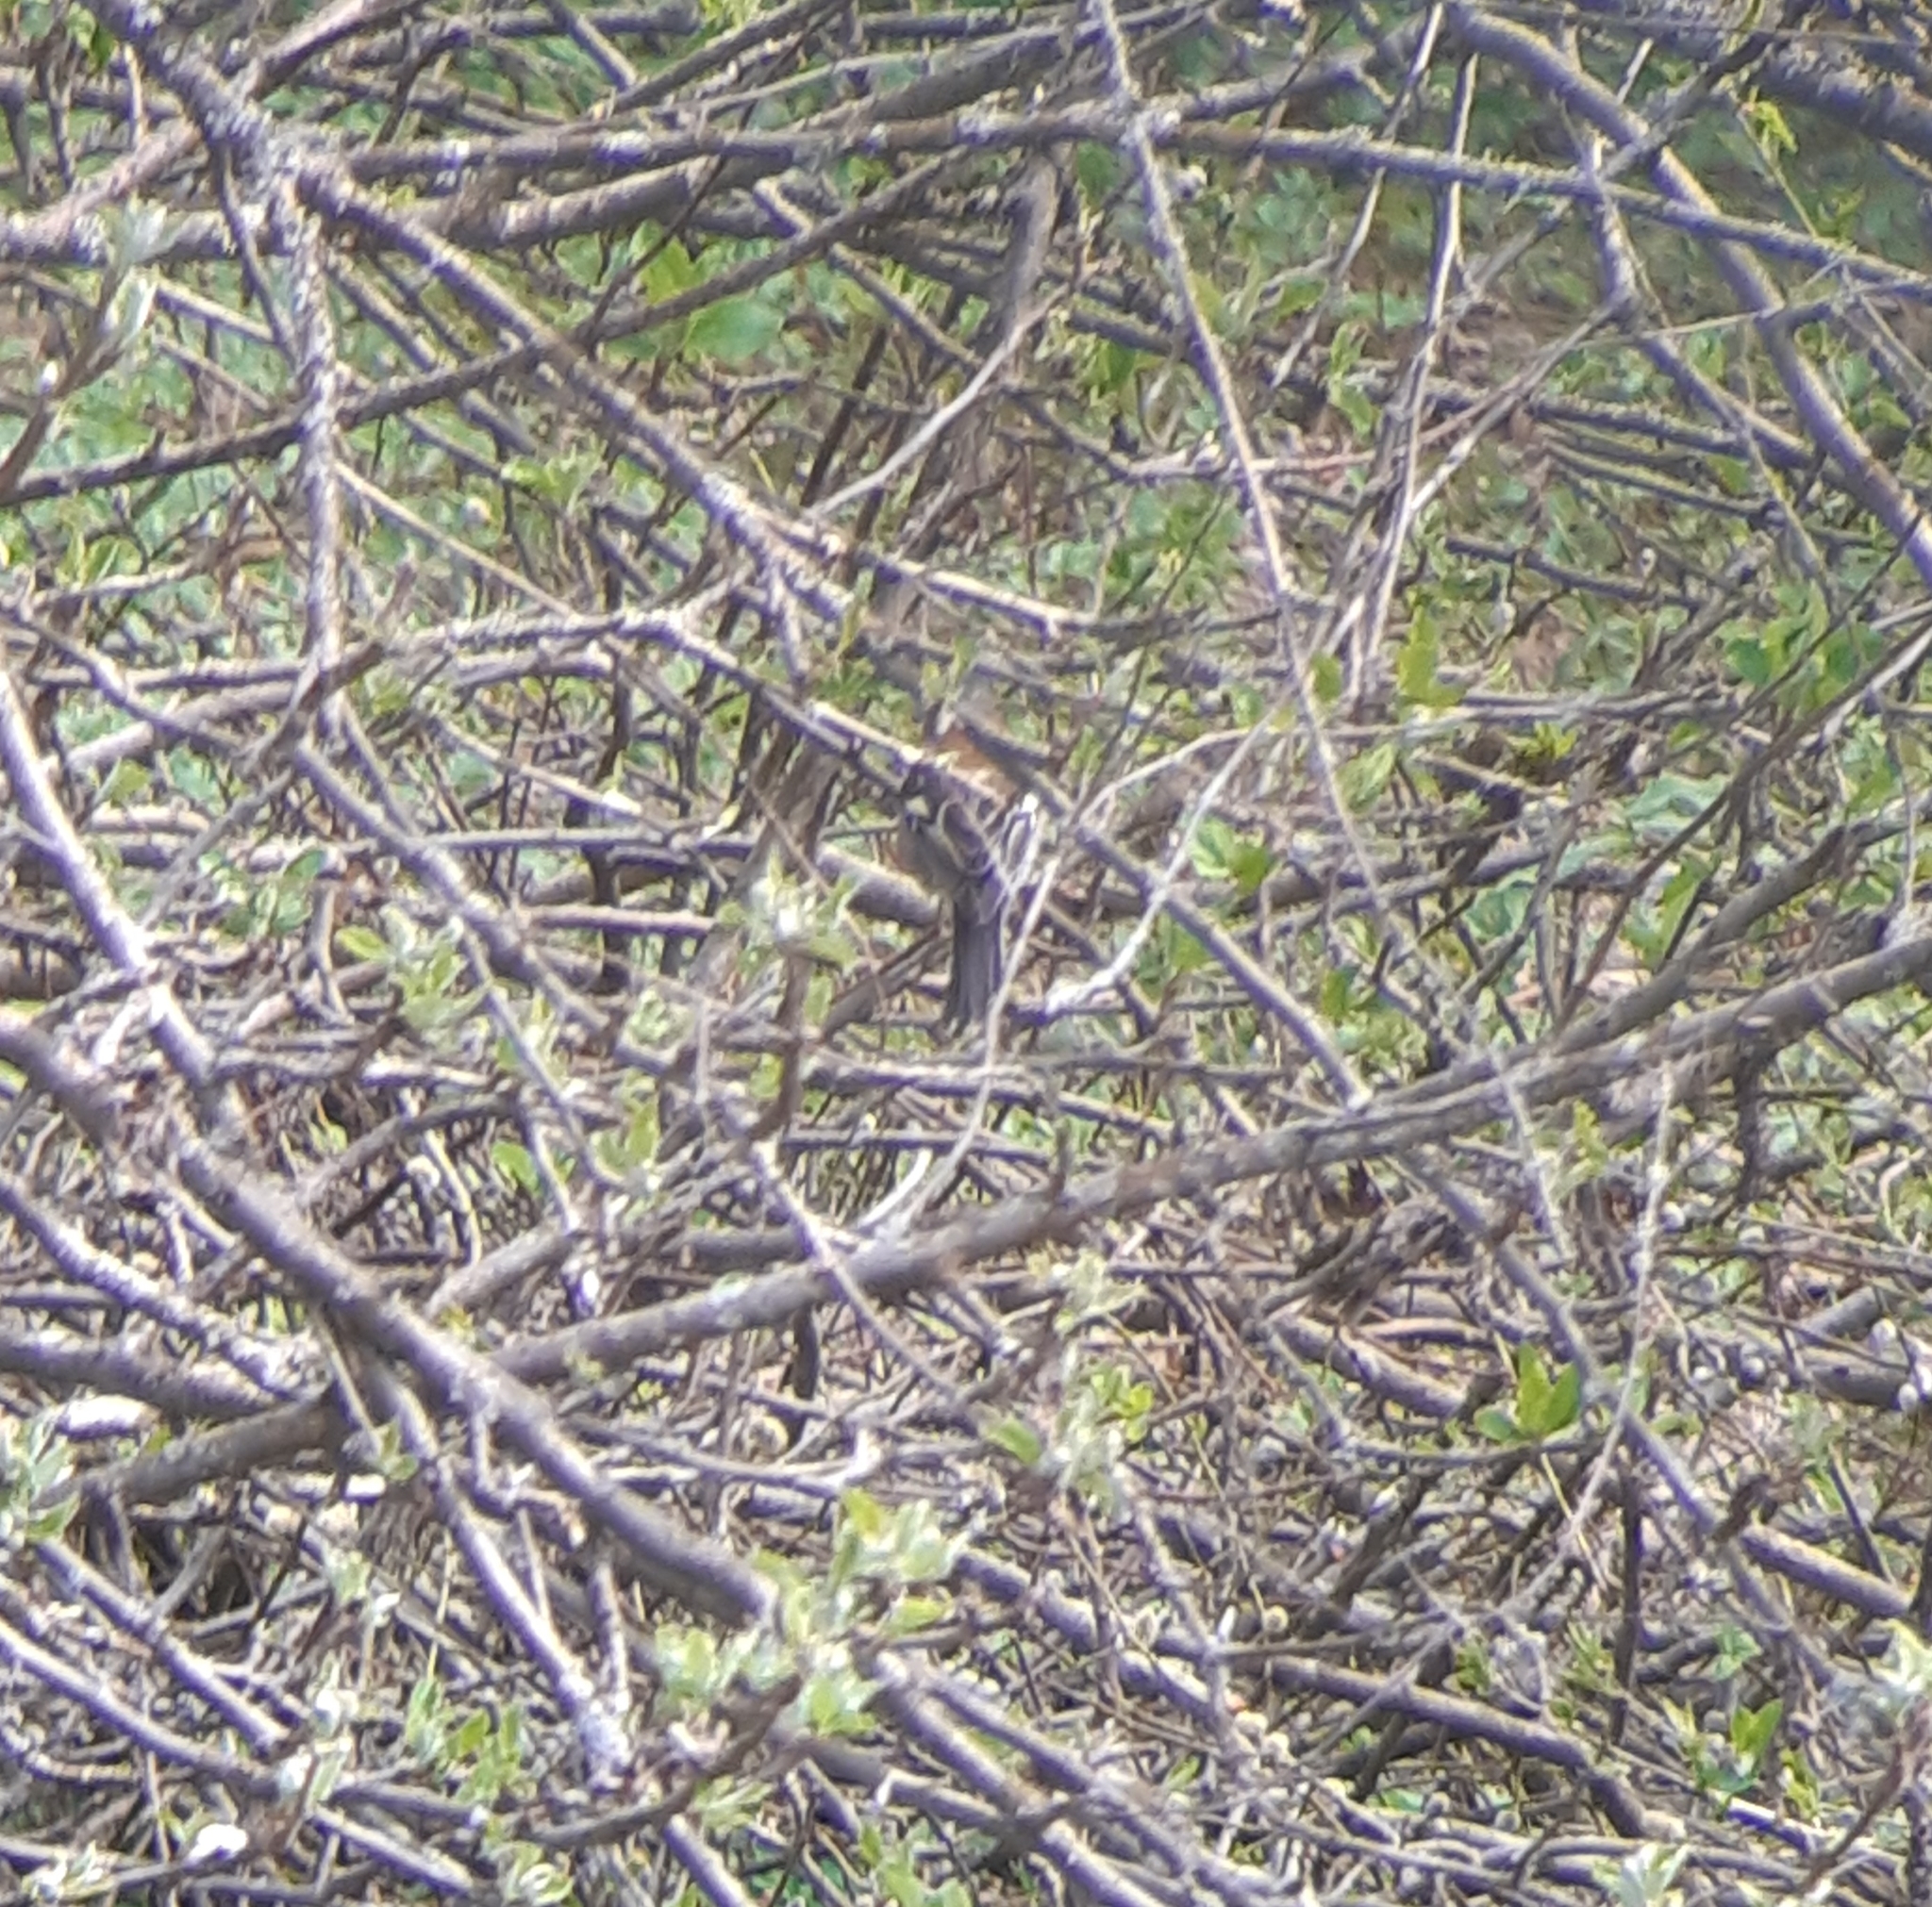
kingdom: Animalia
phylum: Chordata
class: Aves
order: Passeriformes
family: Fringillidae
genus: Fringilla
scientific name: Fringilla coelebs
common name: Common chaffinch
